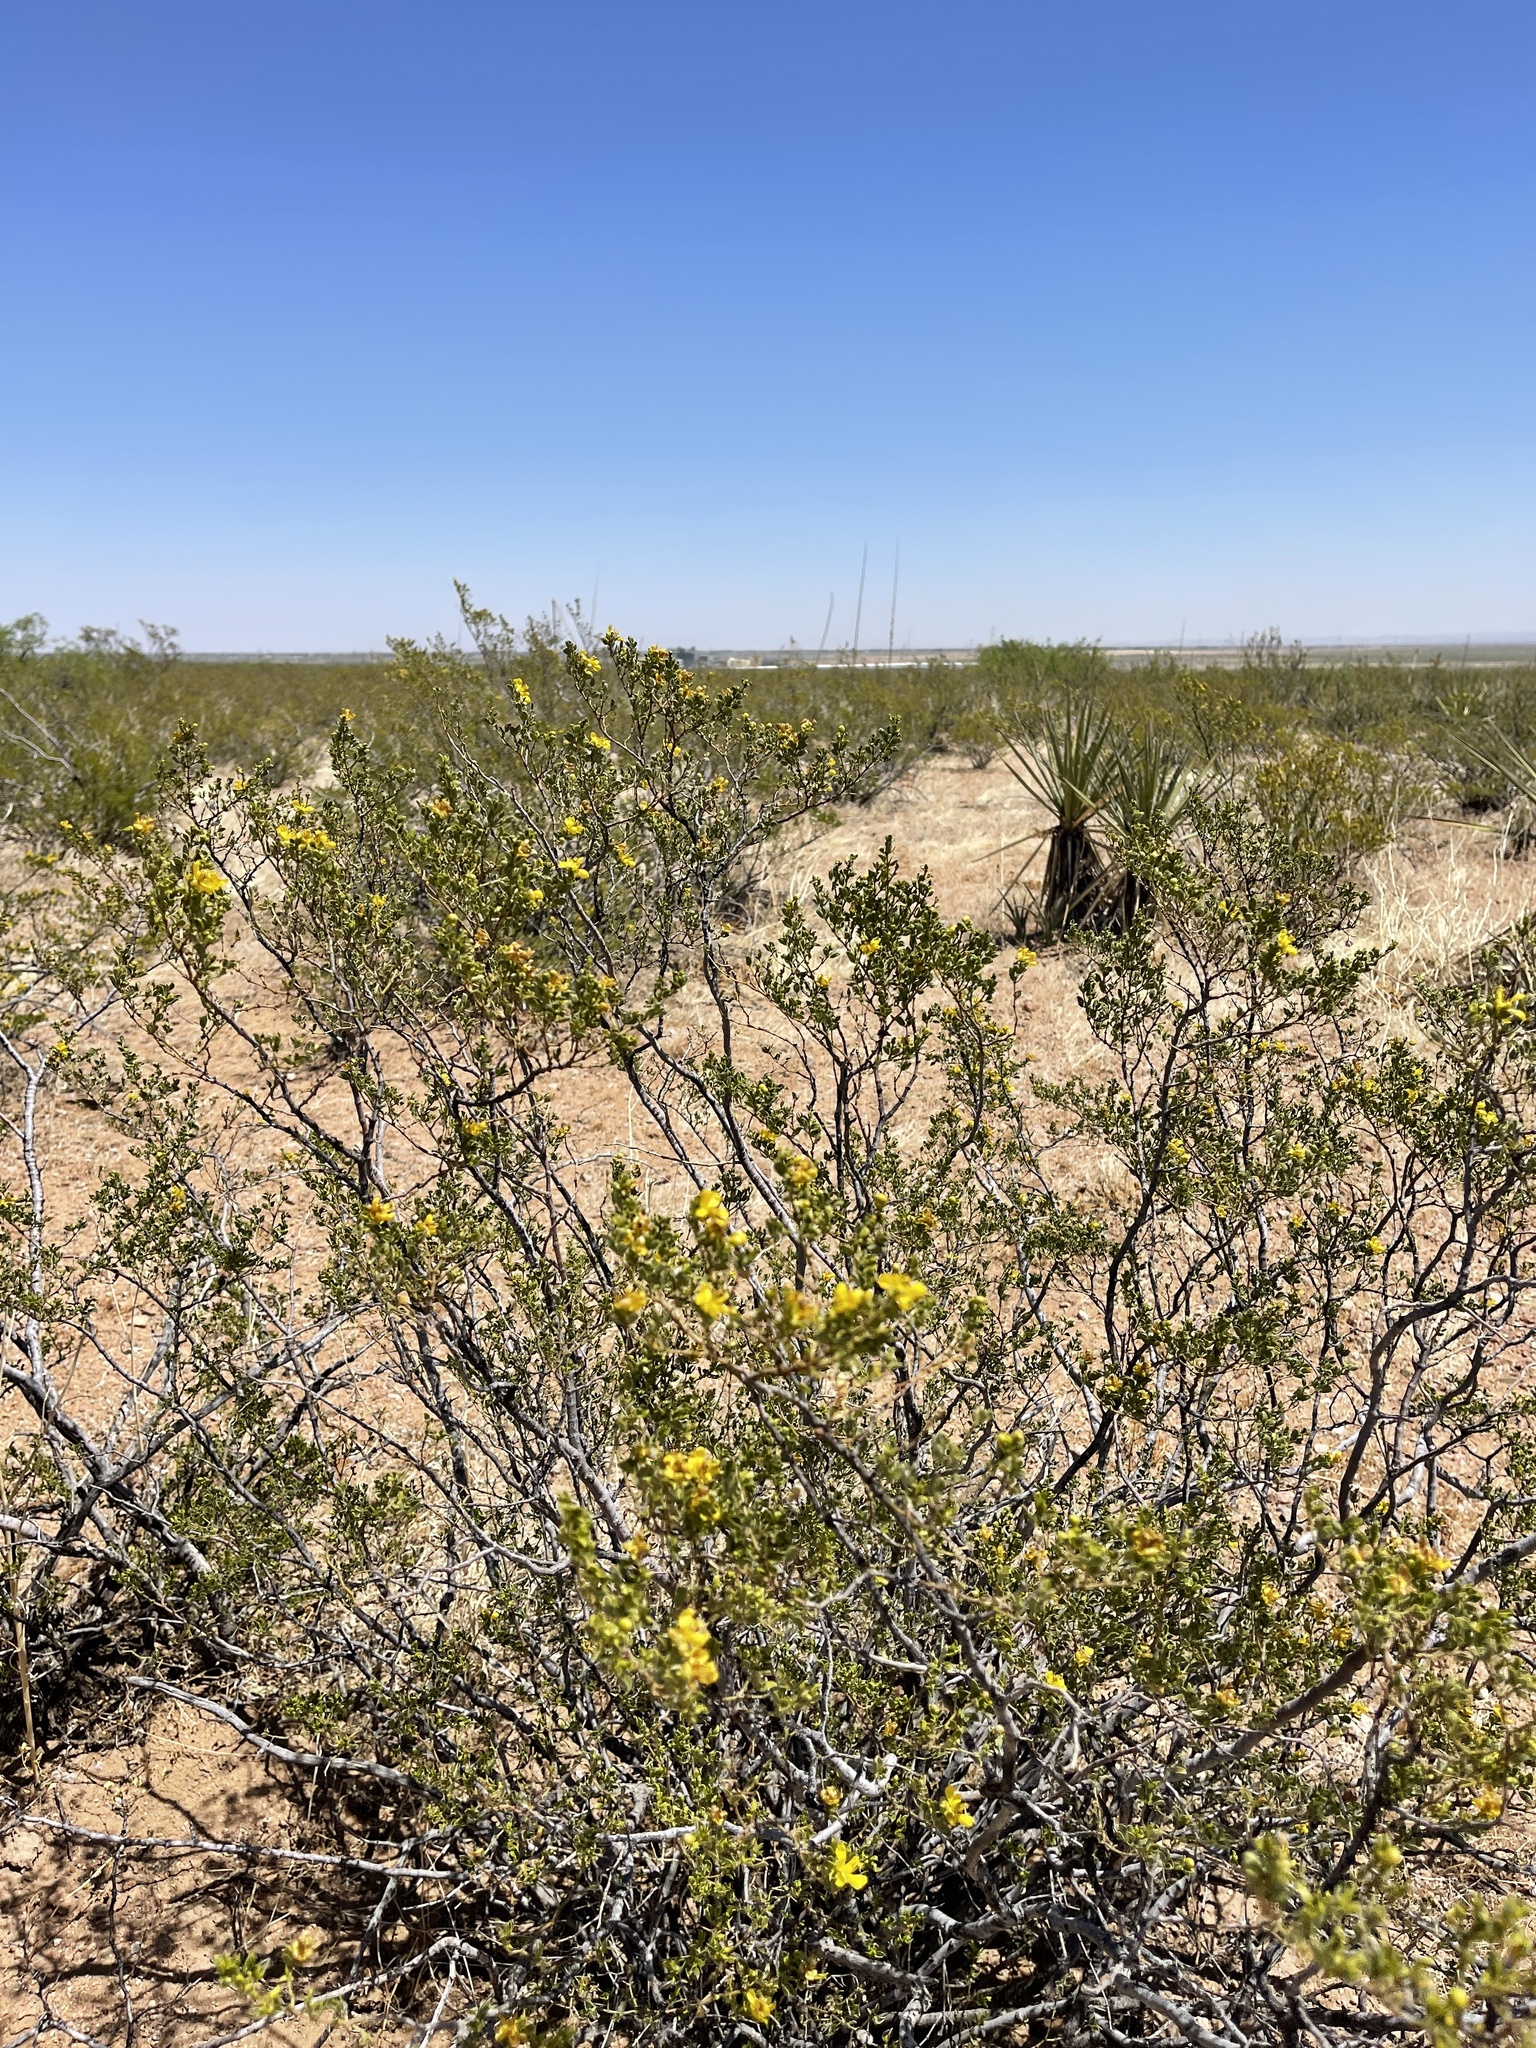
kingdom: Plantae
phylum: Tracheophyta
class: Magnoliopsida
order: Zygophyllales
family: Zygophyllaceae
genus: Larrea
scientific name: Larrea tridentata
